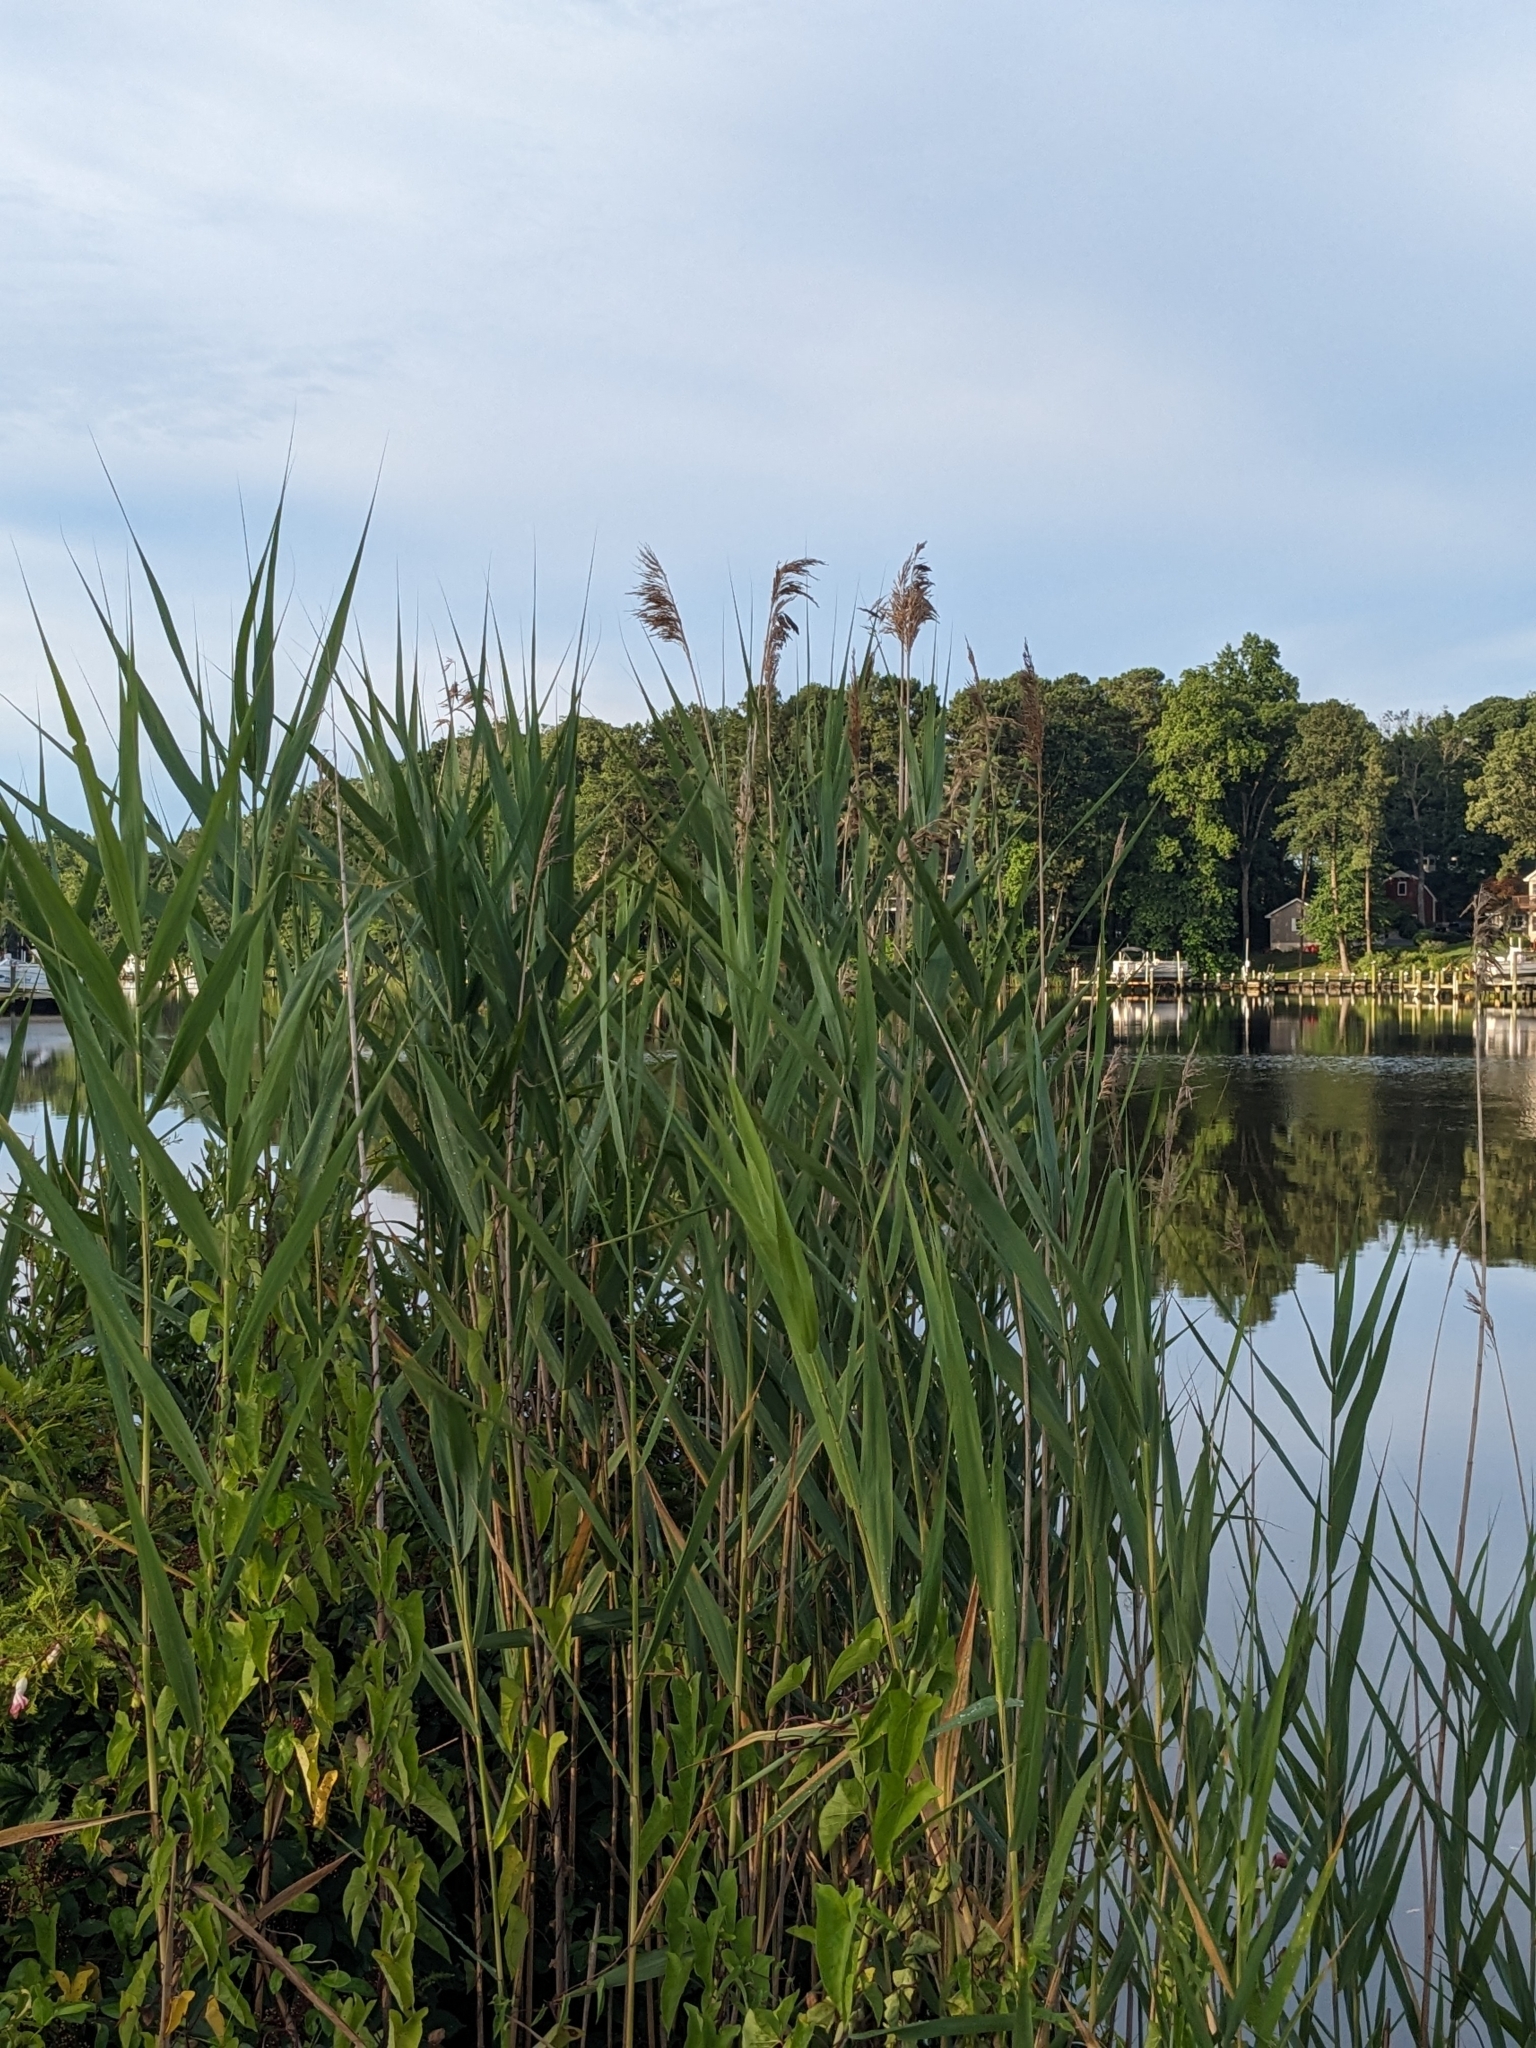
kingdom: Plantae
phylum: Tracheophyta
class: Liliopsida
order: Poales
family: Poaceae
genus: Phragmites
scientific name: Phragmites australis
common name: Common reed
